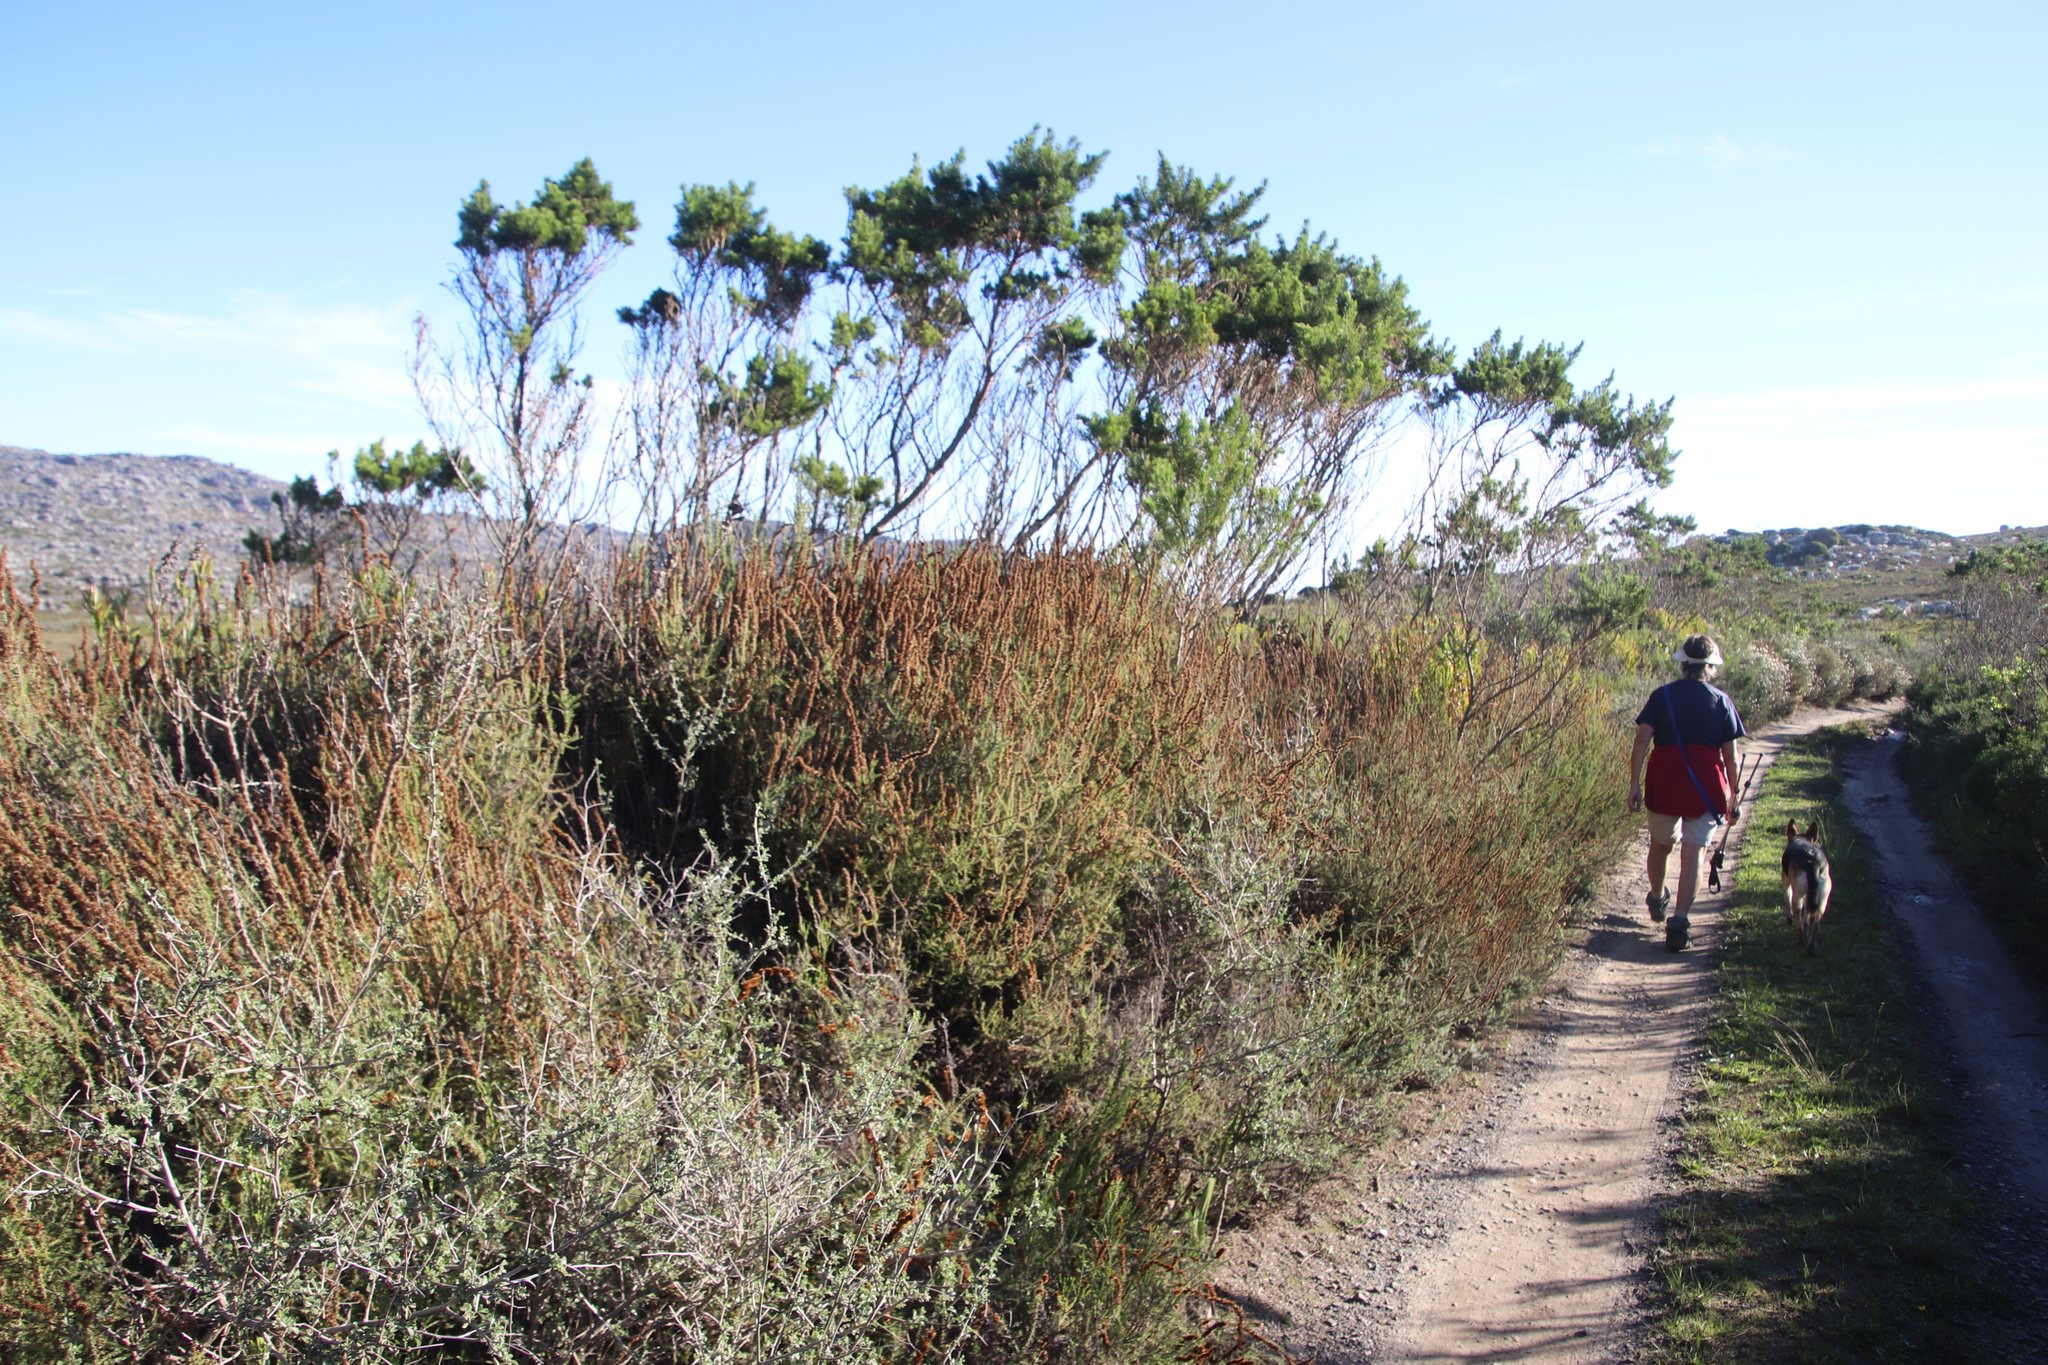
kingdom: Plantae
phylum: Tracheophyta
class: Magnoliopsida
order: Asterales
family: Asteraceae
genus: Seriphium
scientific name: Seriphium cinereum
